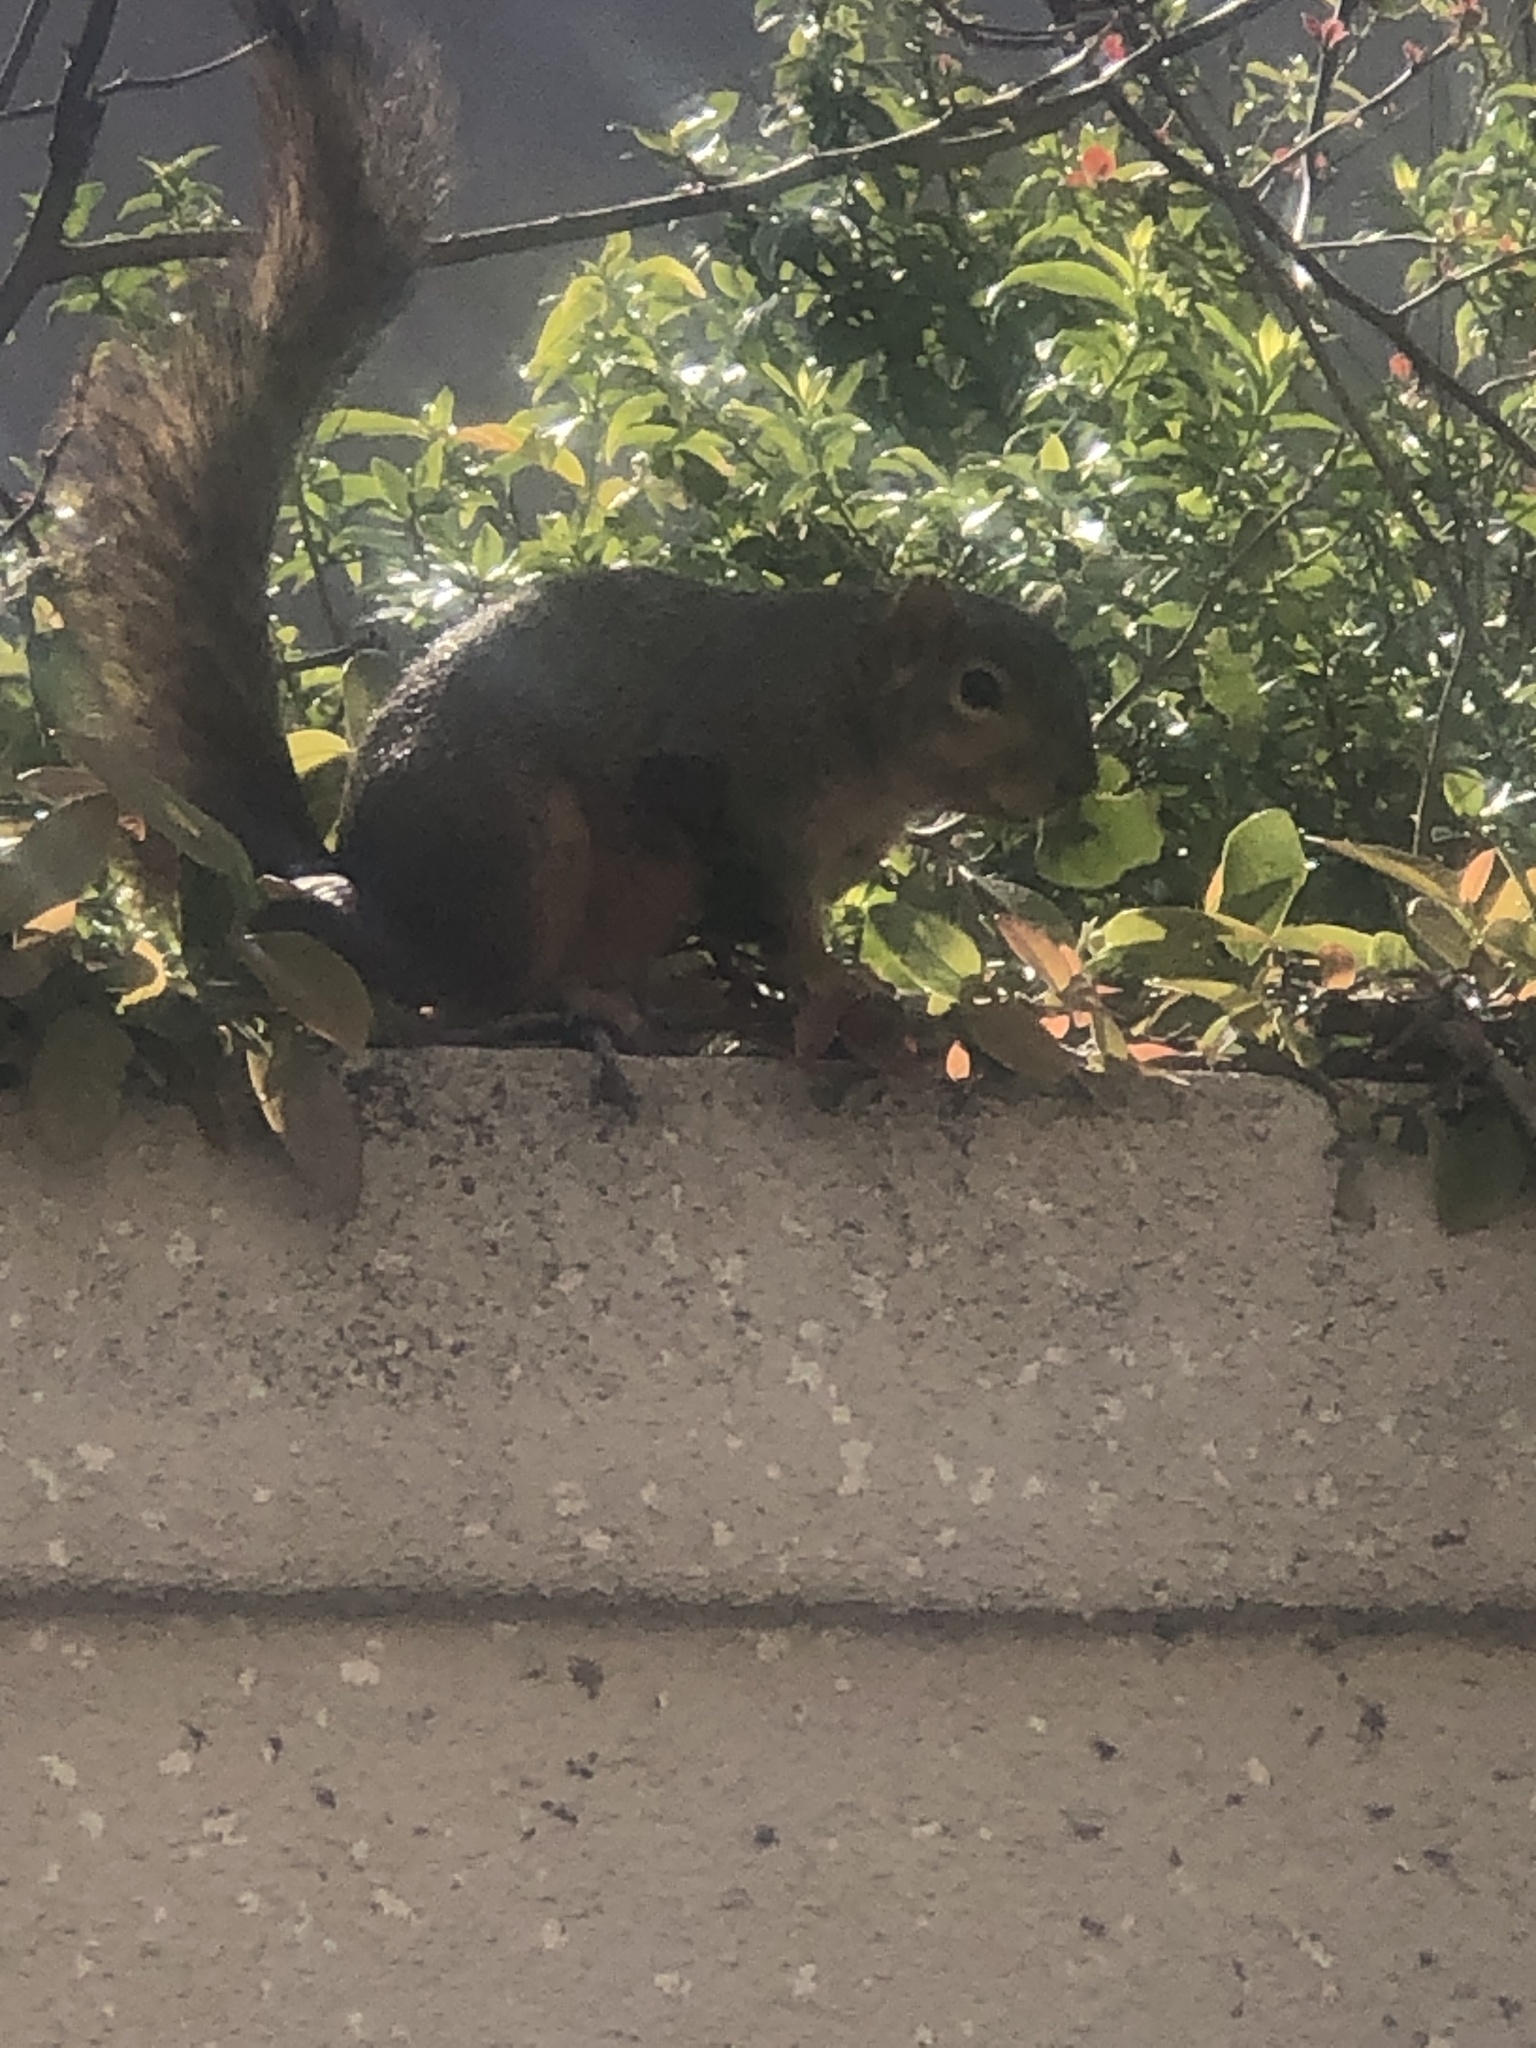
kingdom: Animalia
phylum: Chordata
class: Mammalia
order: Rodentia
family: Sciuridae
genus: Sciurus
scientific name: Sciurus niger
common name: Fox squirrel
